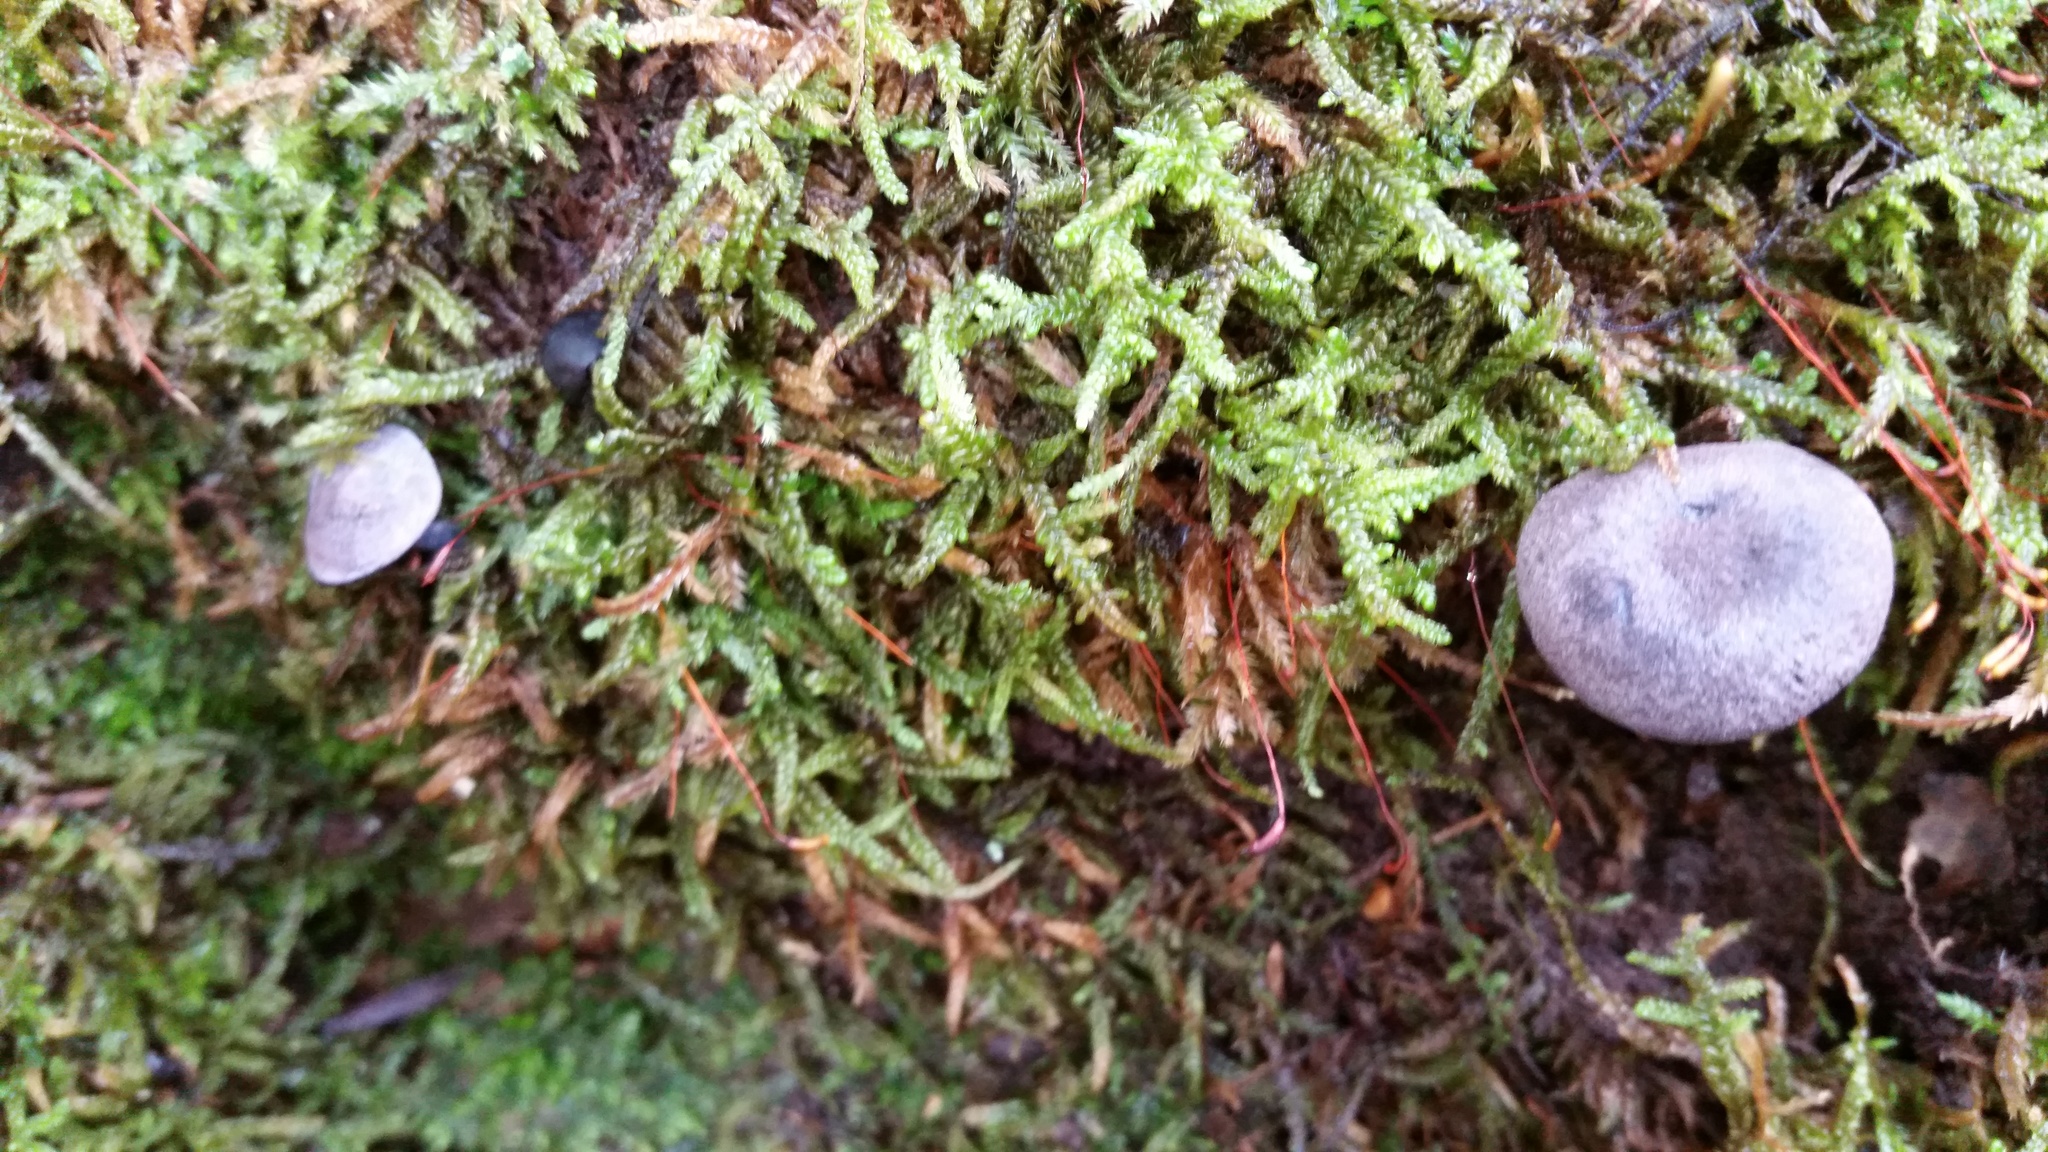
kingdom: Fungi
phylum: Basidiomycota
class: Agaricomycetes
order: Agaricales
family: Entolomataceae
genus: Entoloma
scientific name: Entoloma occidentale
